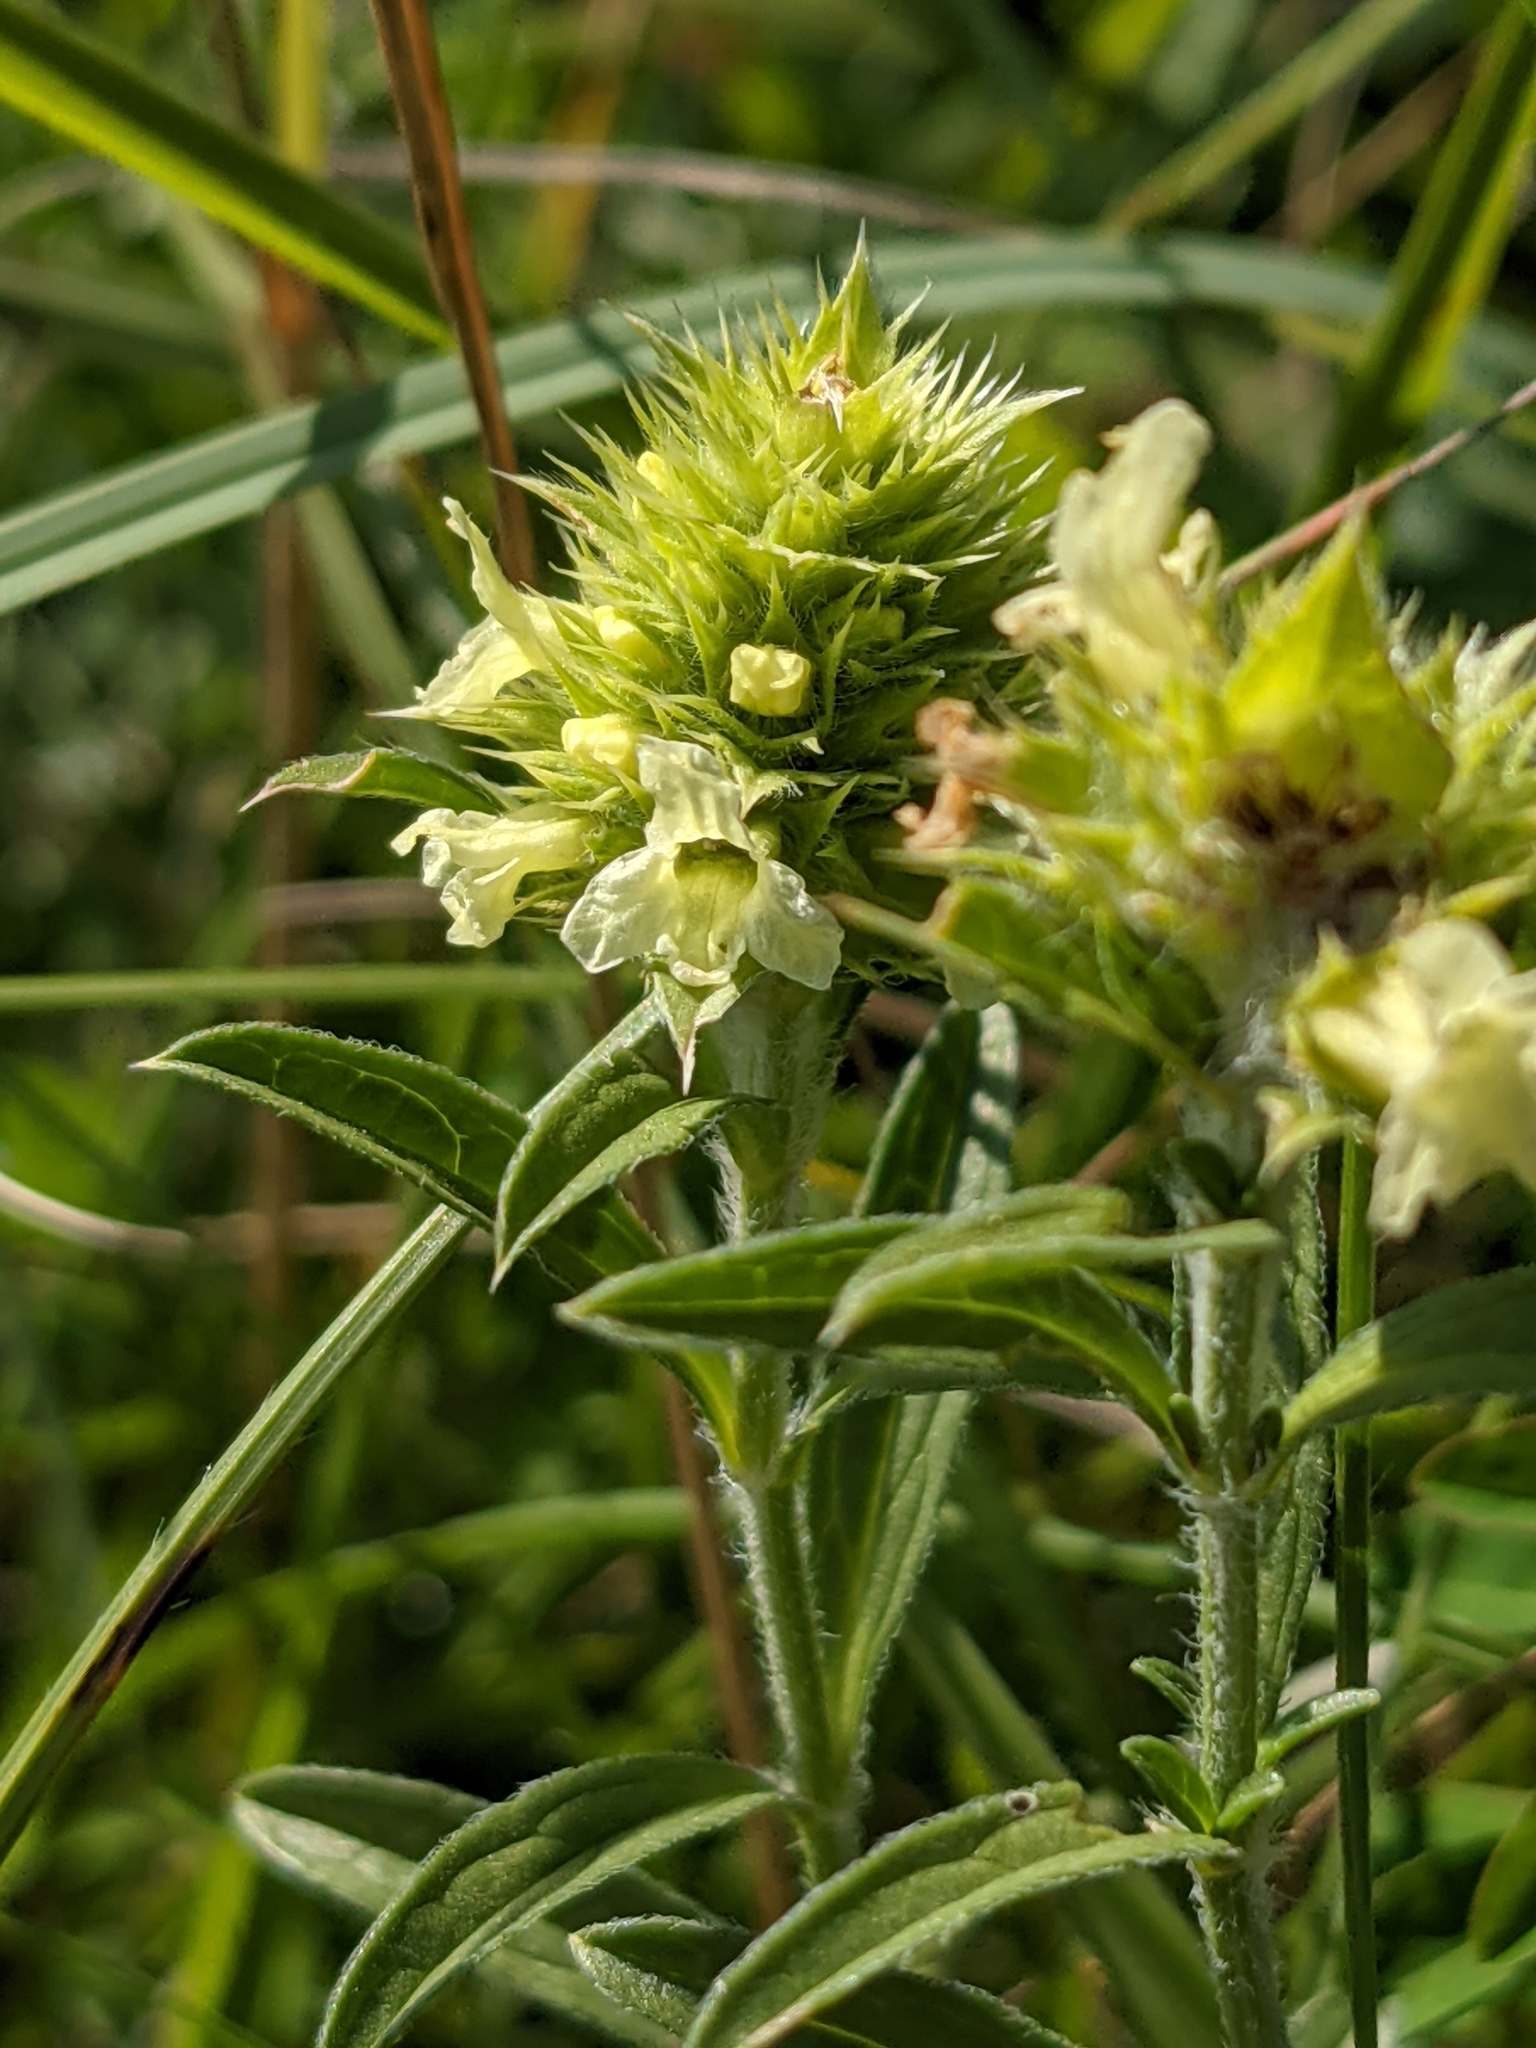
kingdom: Plantae
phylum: Tracheophyta
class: Magnoliopsida
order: Lamiales
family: Lamiaceae
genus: Sideritis
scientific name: Sideritis hyssopifolia
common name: Mountain tea
